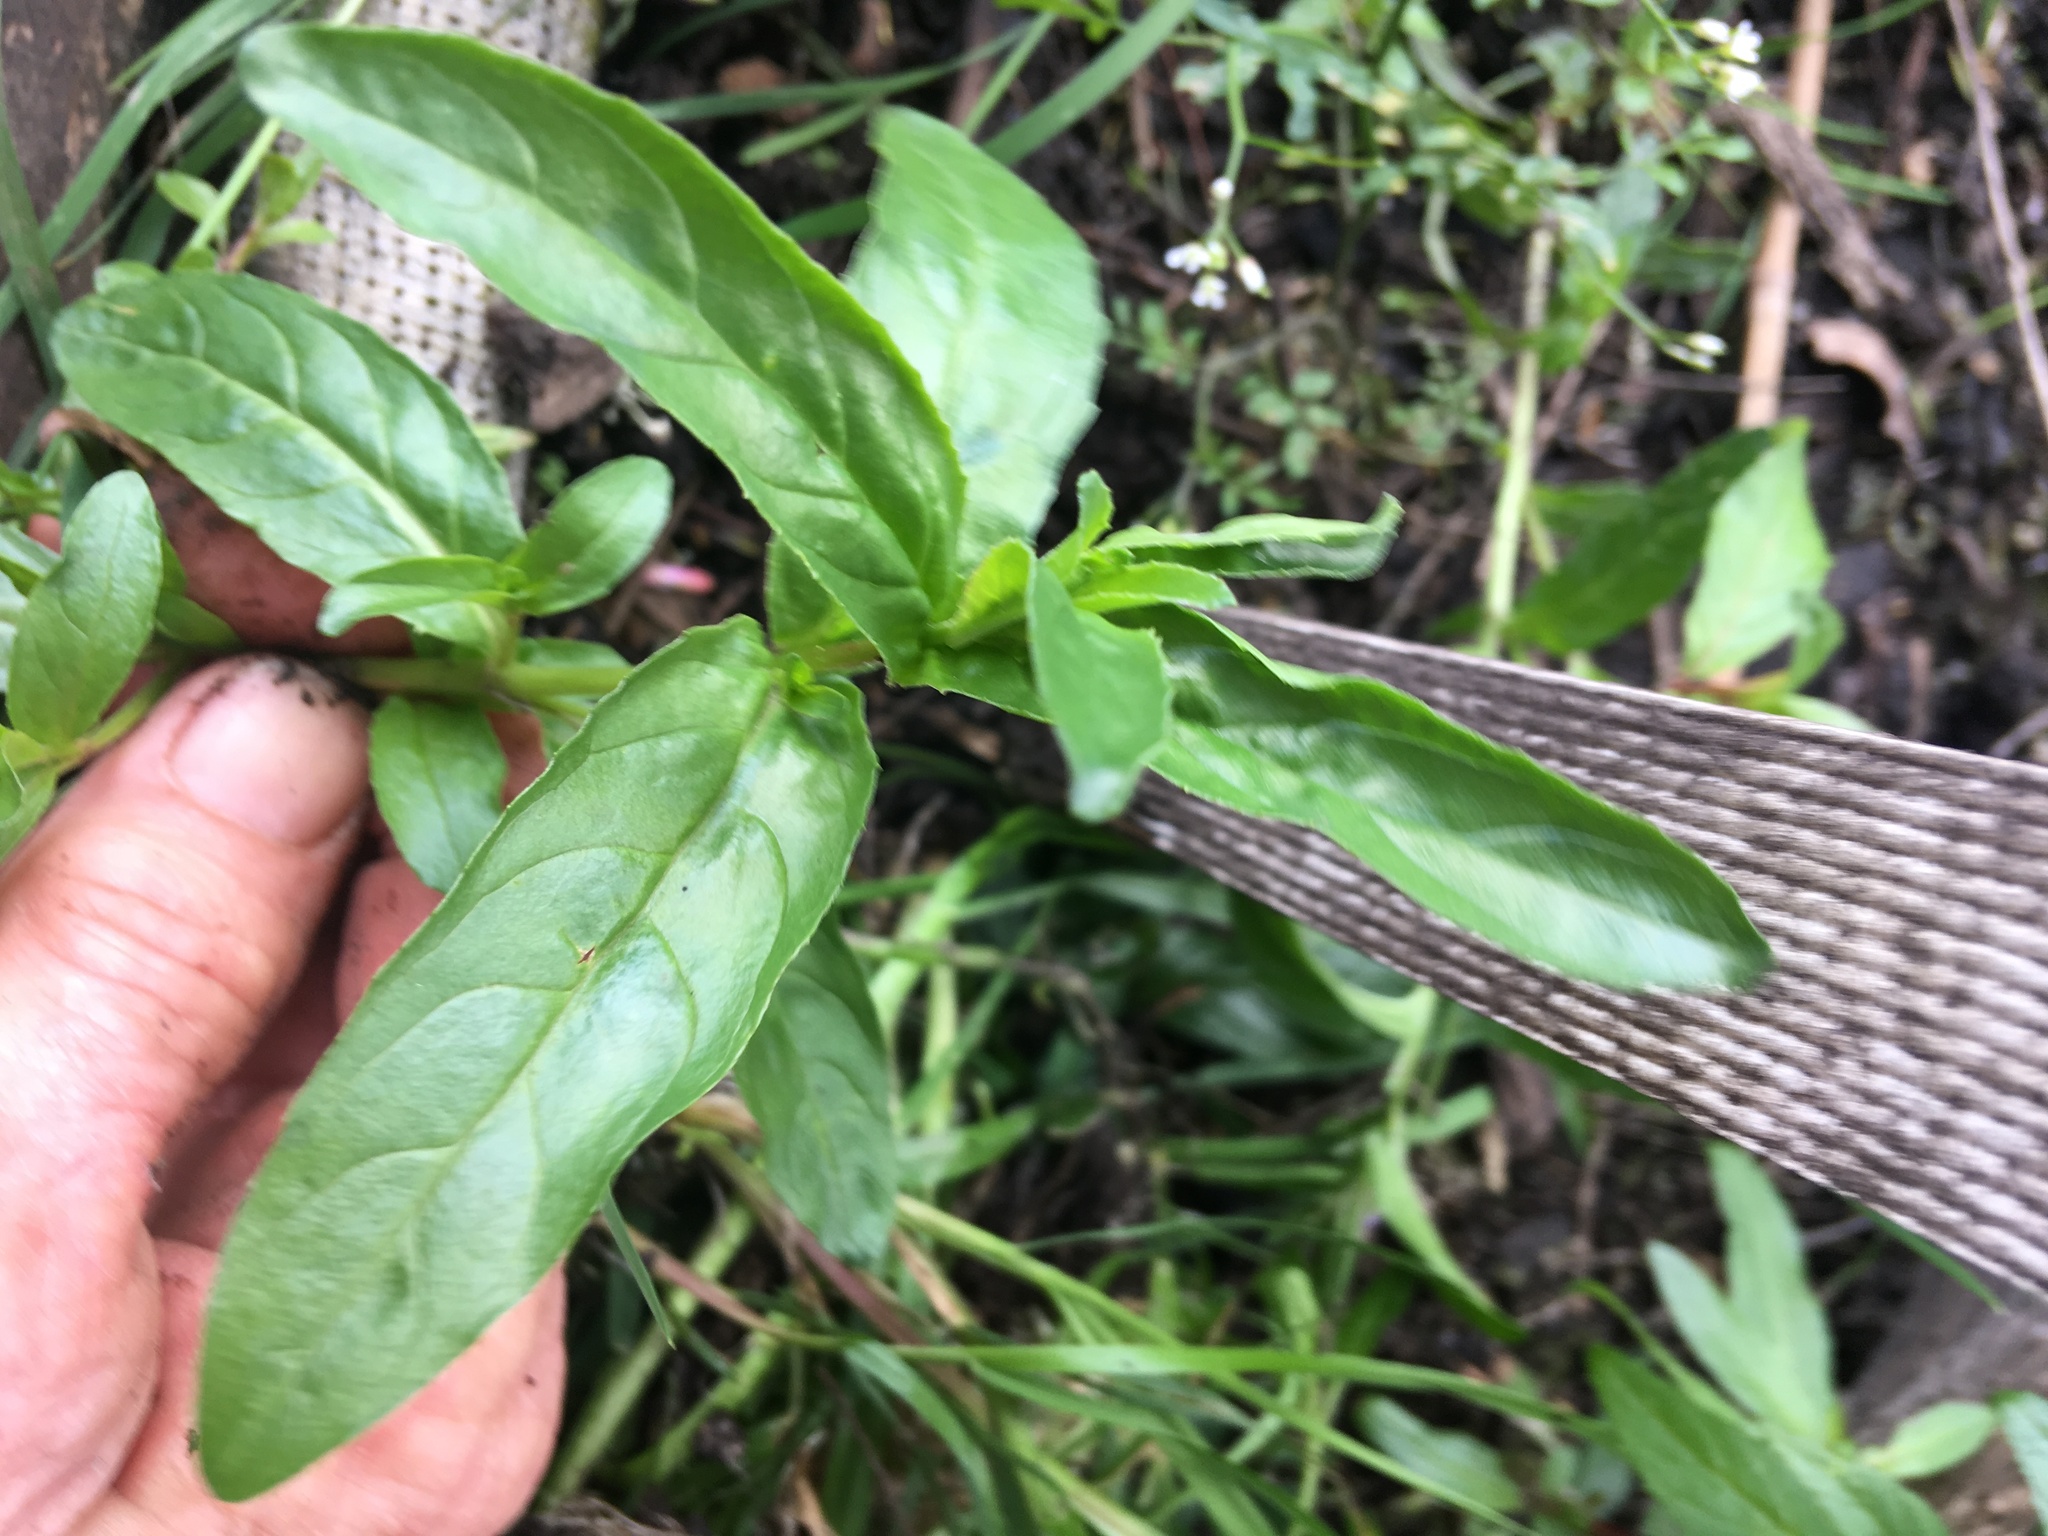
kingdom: Plantae
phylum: Tracheophyta
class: Magnoliopsida
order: Myrtales
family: Onagraceae
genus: Epilobium
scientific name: Epilobium ciliatum
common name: American willowherb
